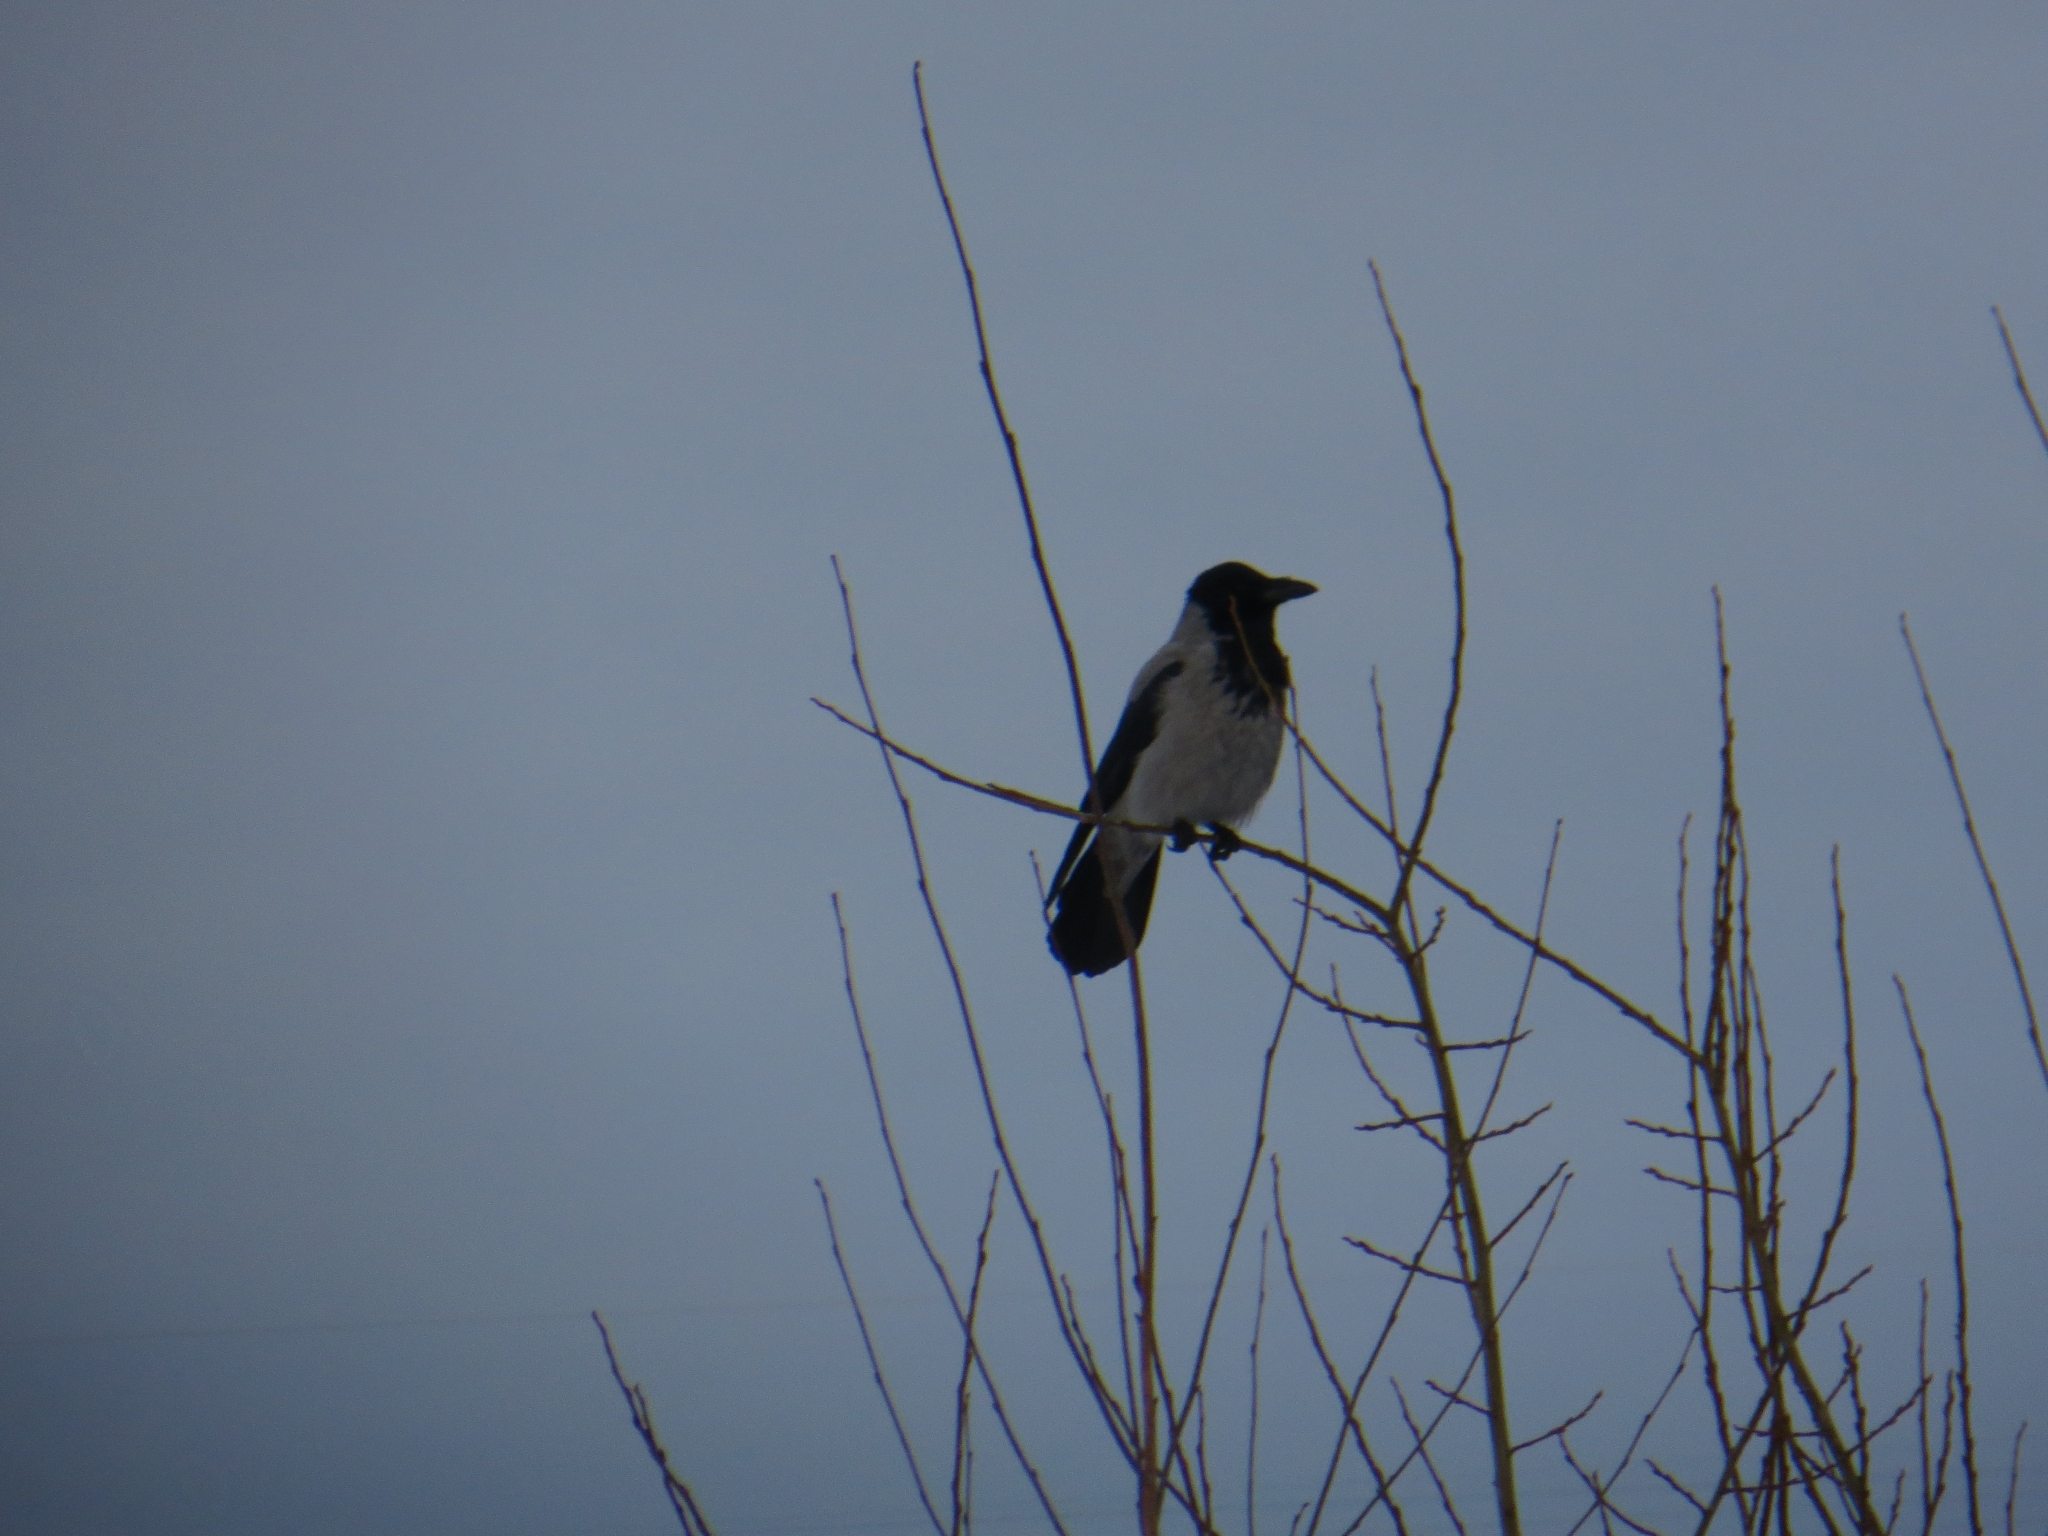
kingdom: Animalia
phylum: Chordata
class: Aves
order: Passeriformes
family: Corvidae
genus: Corvus
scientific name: Corvus cornix
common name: Hooded crow
